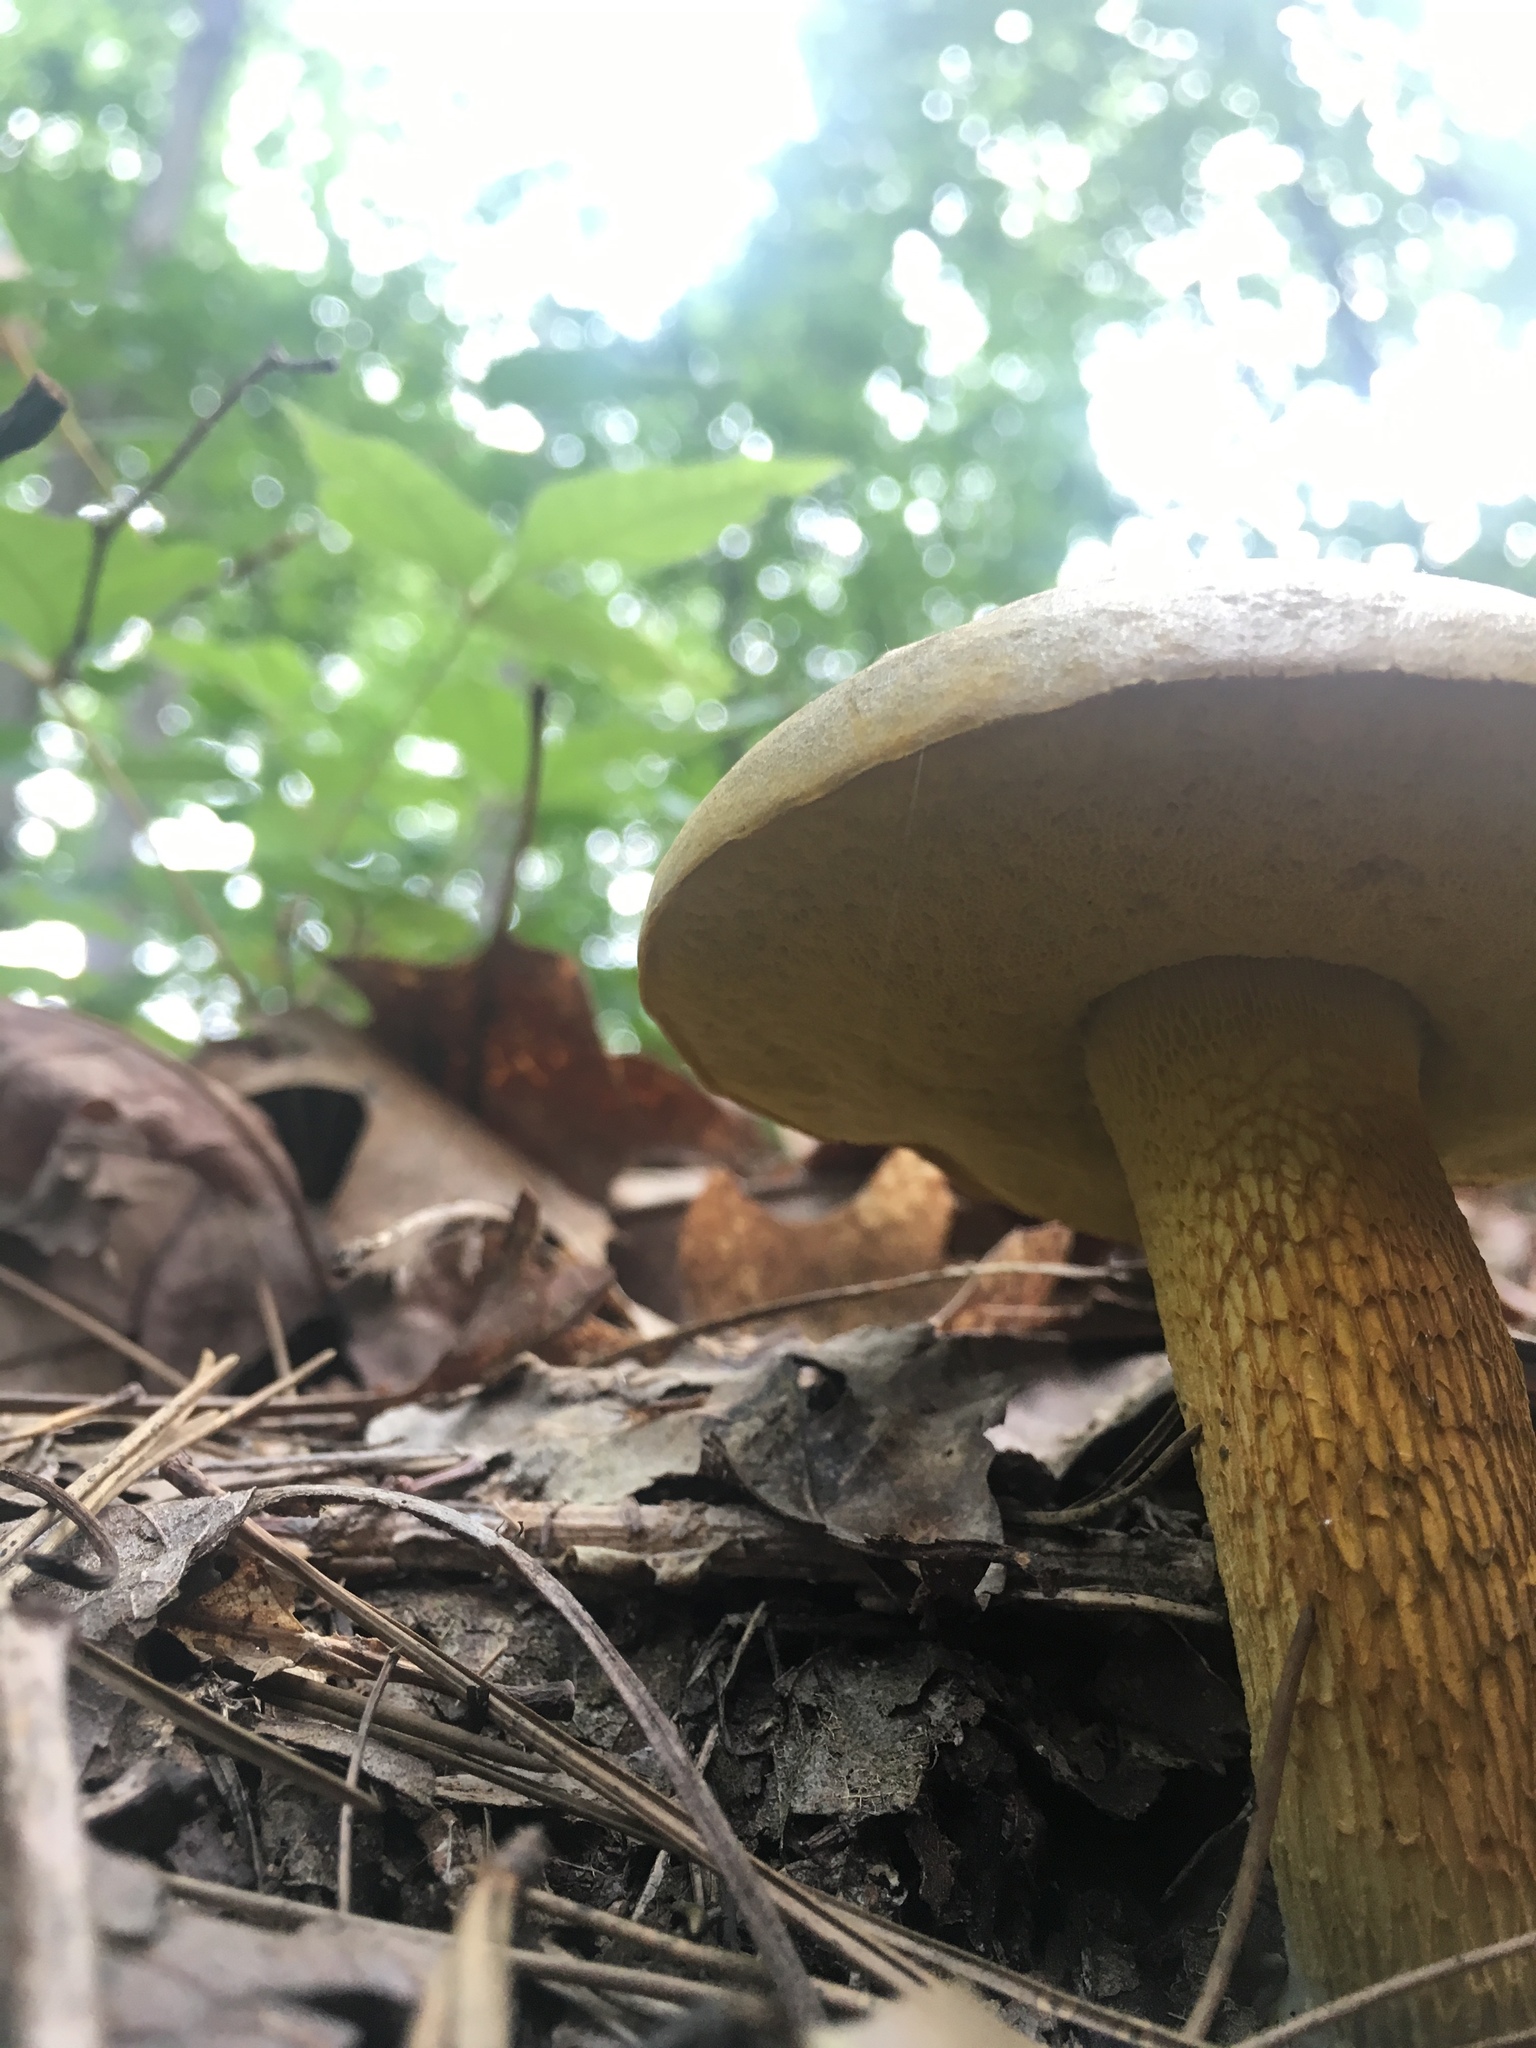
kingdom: Fungi
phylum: Basidiomycota
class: Agaricomycetes
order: Boletales
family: Boletaceae
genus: Retiboletus
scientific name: Retiboletus ornatipes
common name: Ornate-stalked bolete
